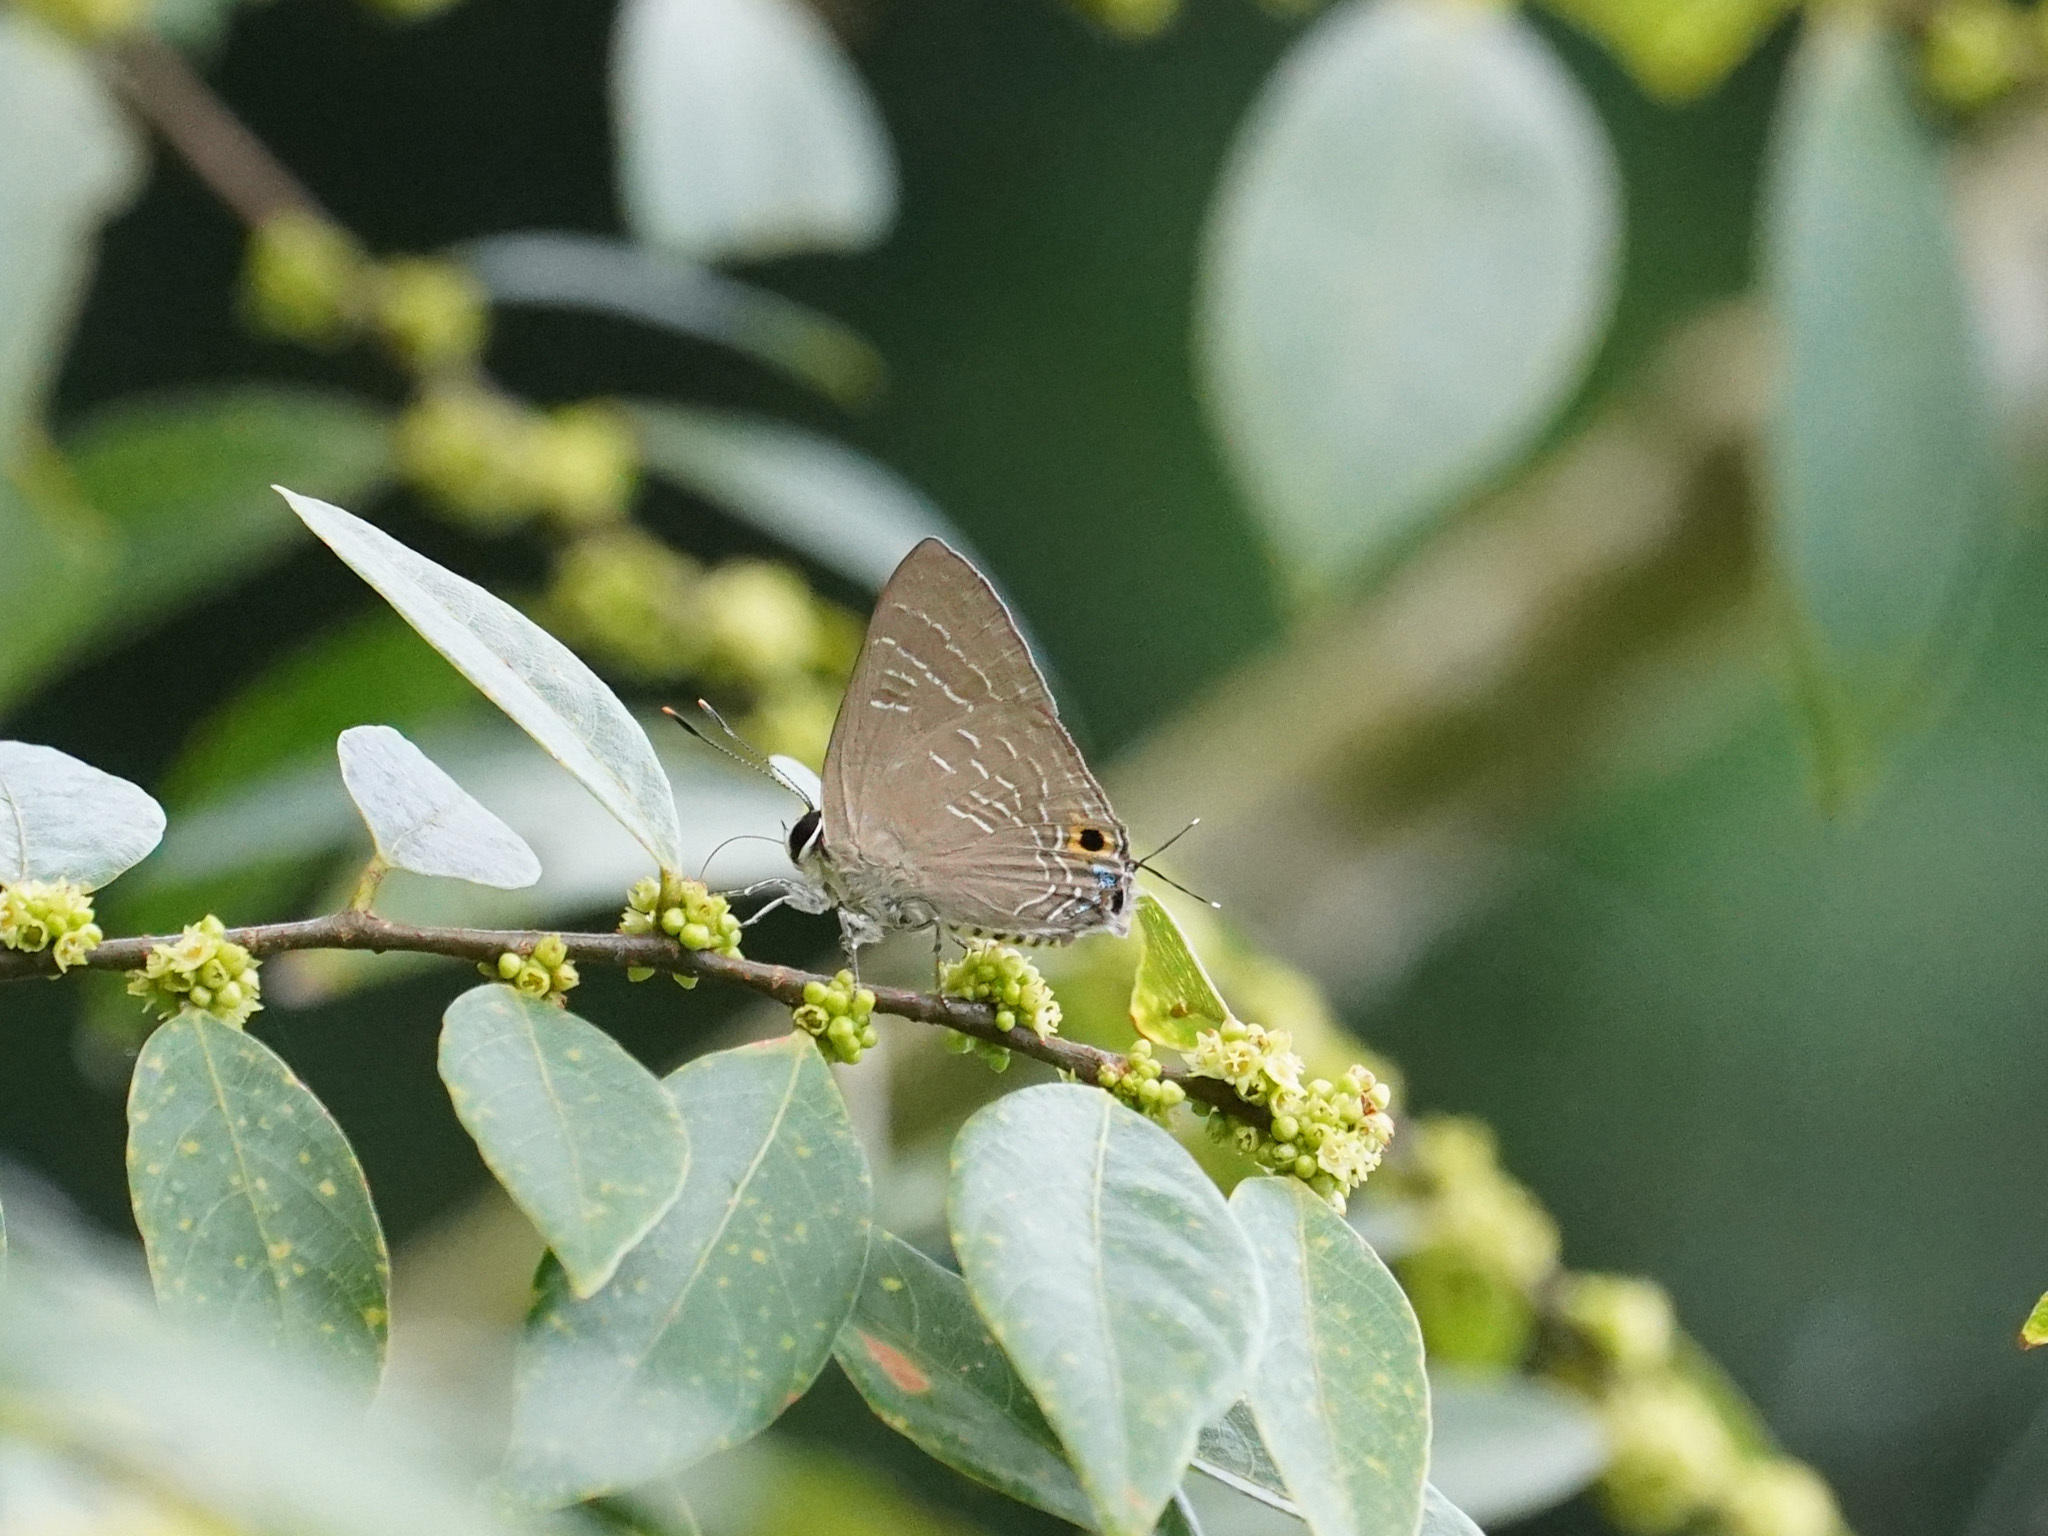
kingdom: Animalia
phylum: Arthropoda
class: Insecta
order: Lepidoptera
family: Lycaenidae
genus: Deudorix
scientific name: Deudorix epijarbas
